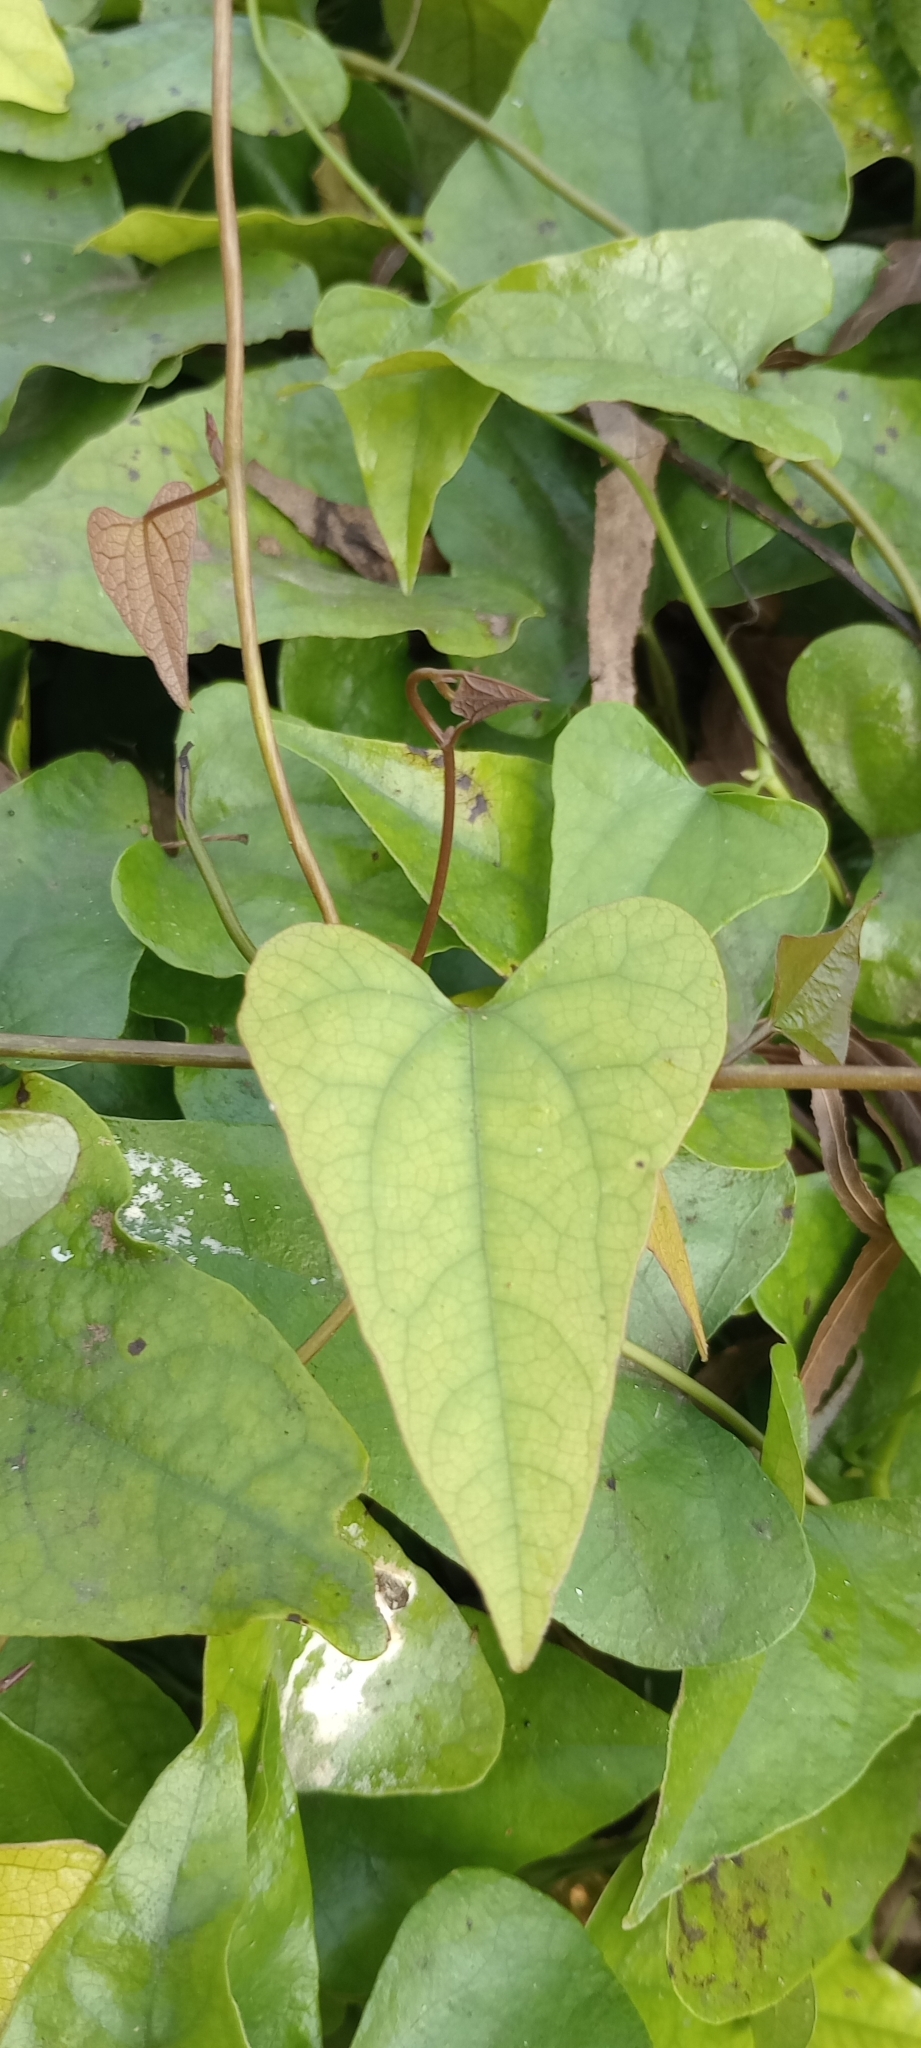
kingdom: Plantae
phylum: Tracheophyta
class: Magnoliopsida
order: Piperales
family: Aristolochiaceae
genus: Aristolochia
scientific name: Aristolochia triangularis
